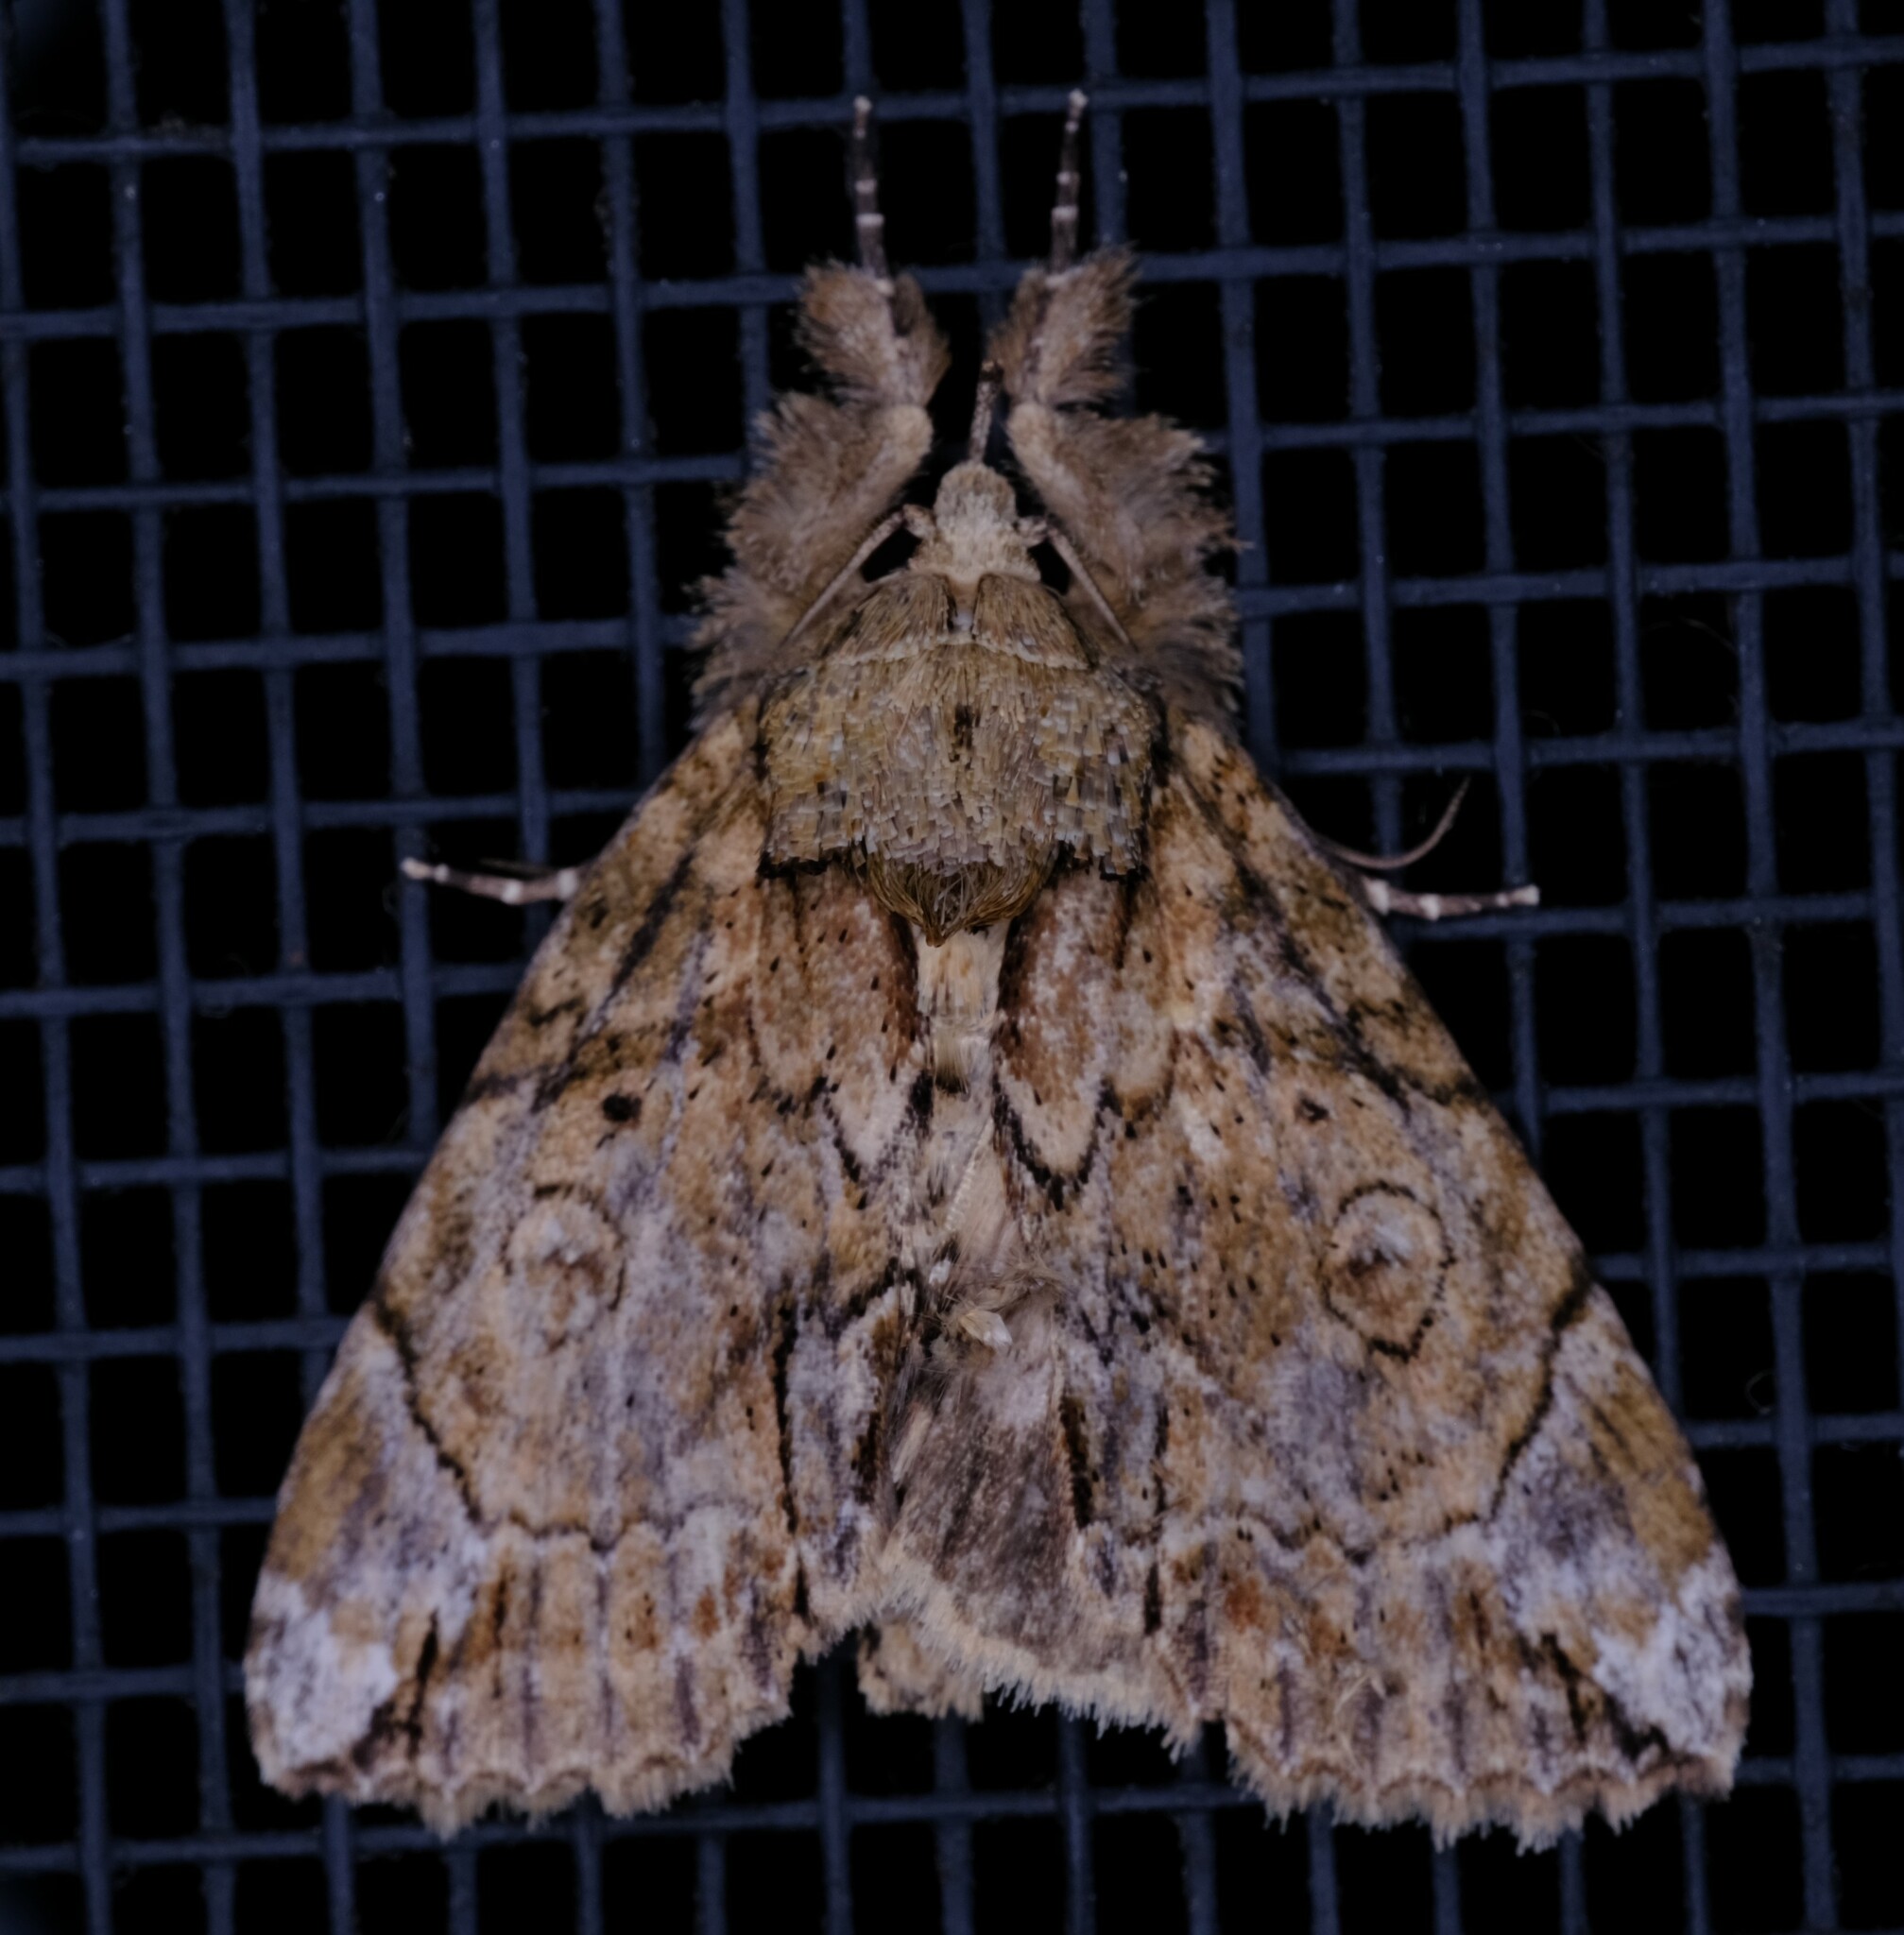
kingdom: Animalia
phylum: Arthropoda
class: Insecta
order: Lepidoptera
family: Nolidae
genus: Ochrothripa
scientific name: Ochrothripa leptochroma
